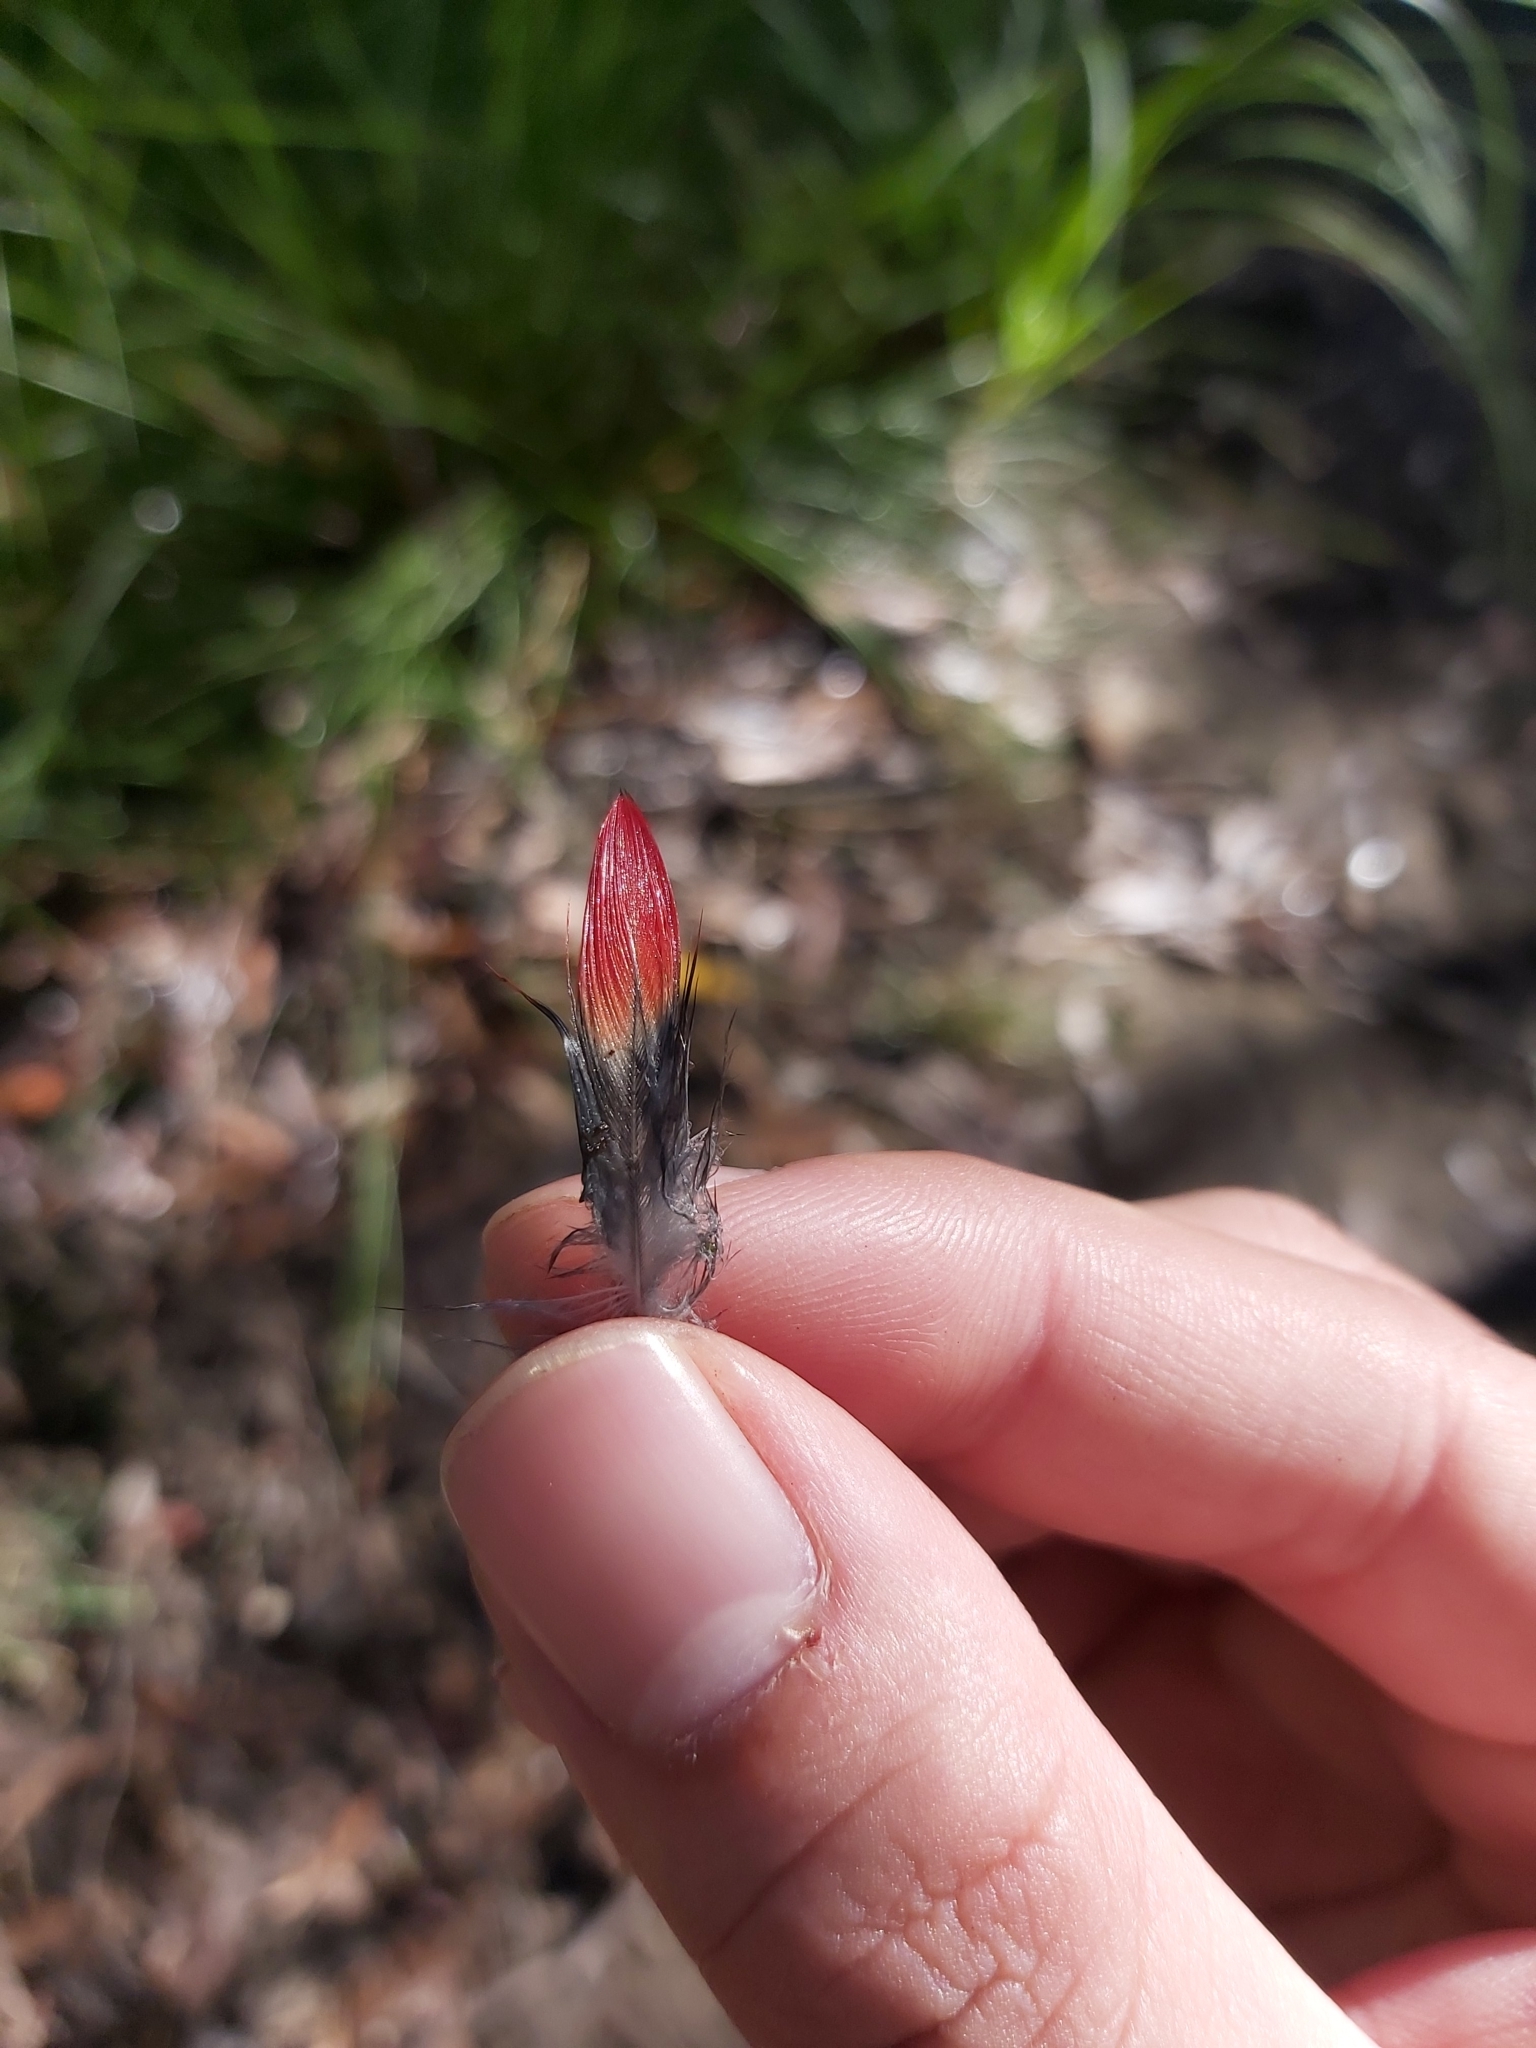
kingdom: Animalia
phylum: Chordata
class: Aves
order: Psittaciformes
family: Psittacidae
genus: Platycercus
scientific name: Platycercus elegans
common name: Crimson rosella
